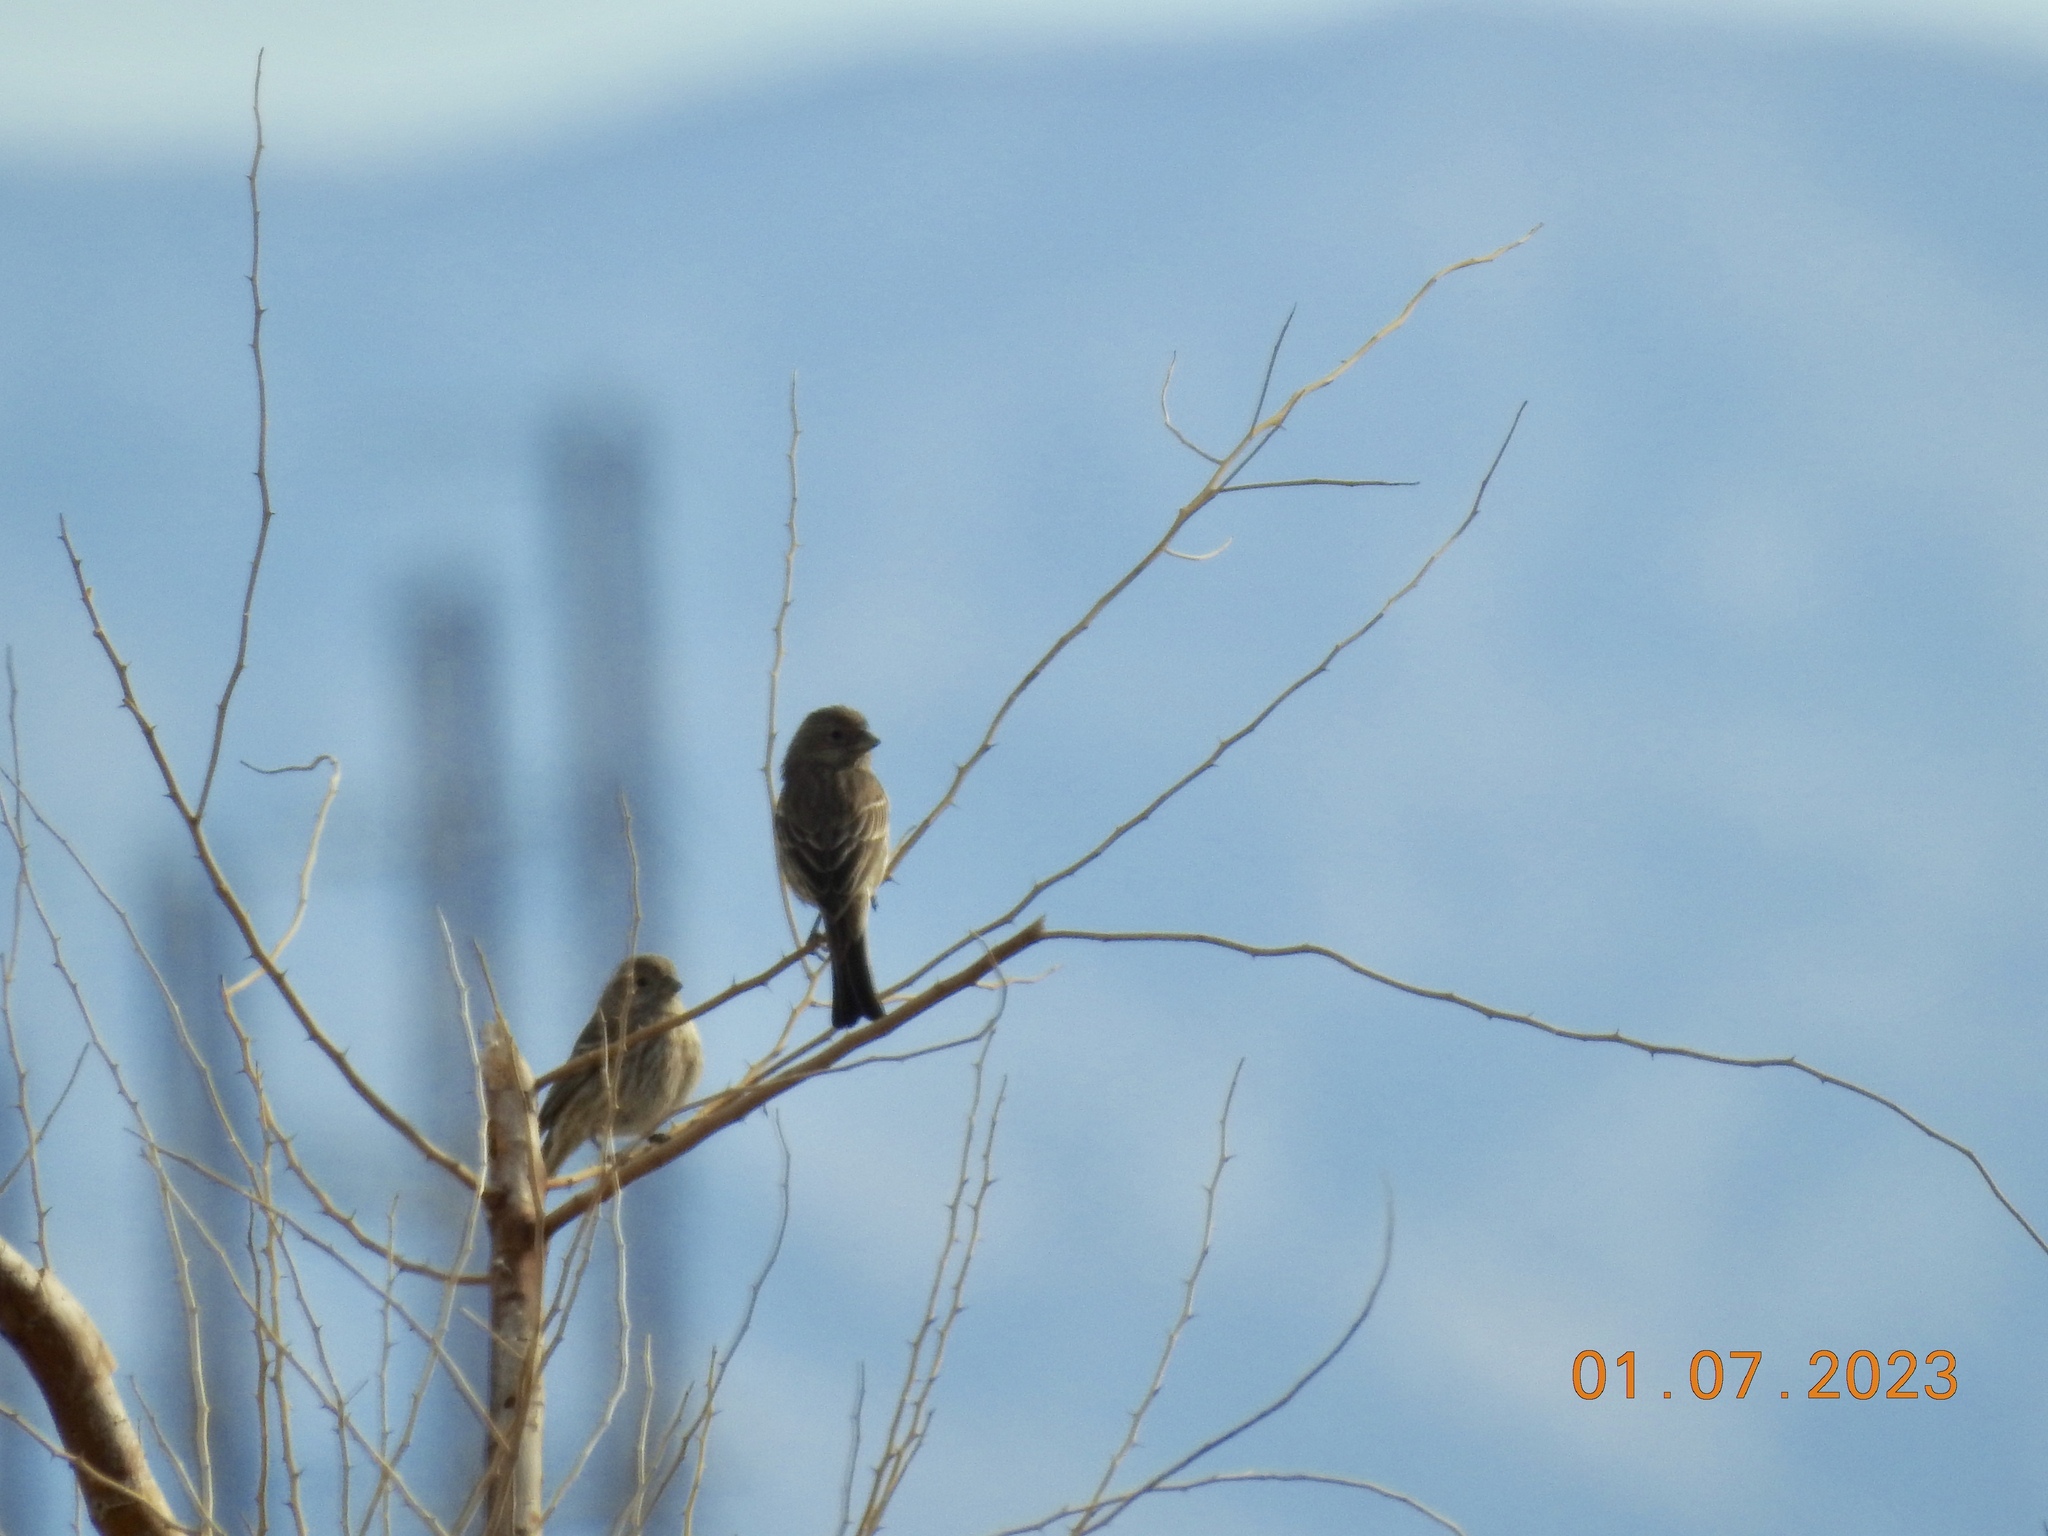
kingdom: Animalia
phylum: Chordata
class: Aves
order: Passeriformes
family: Fringillidae
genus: Haemorhous
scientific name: Haemorhous mexicanus
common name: House finch
